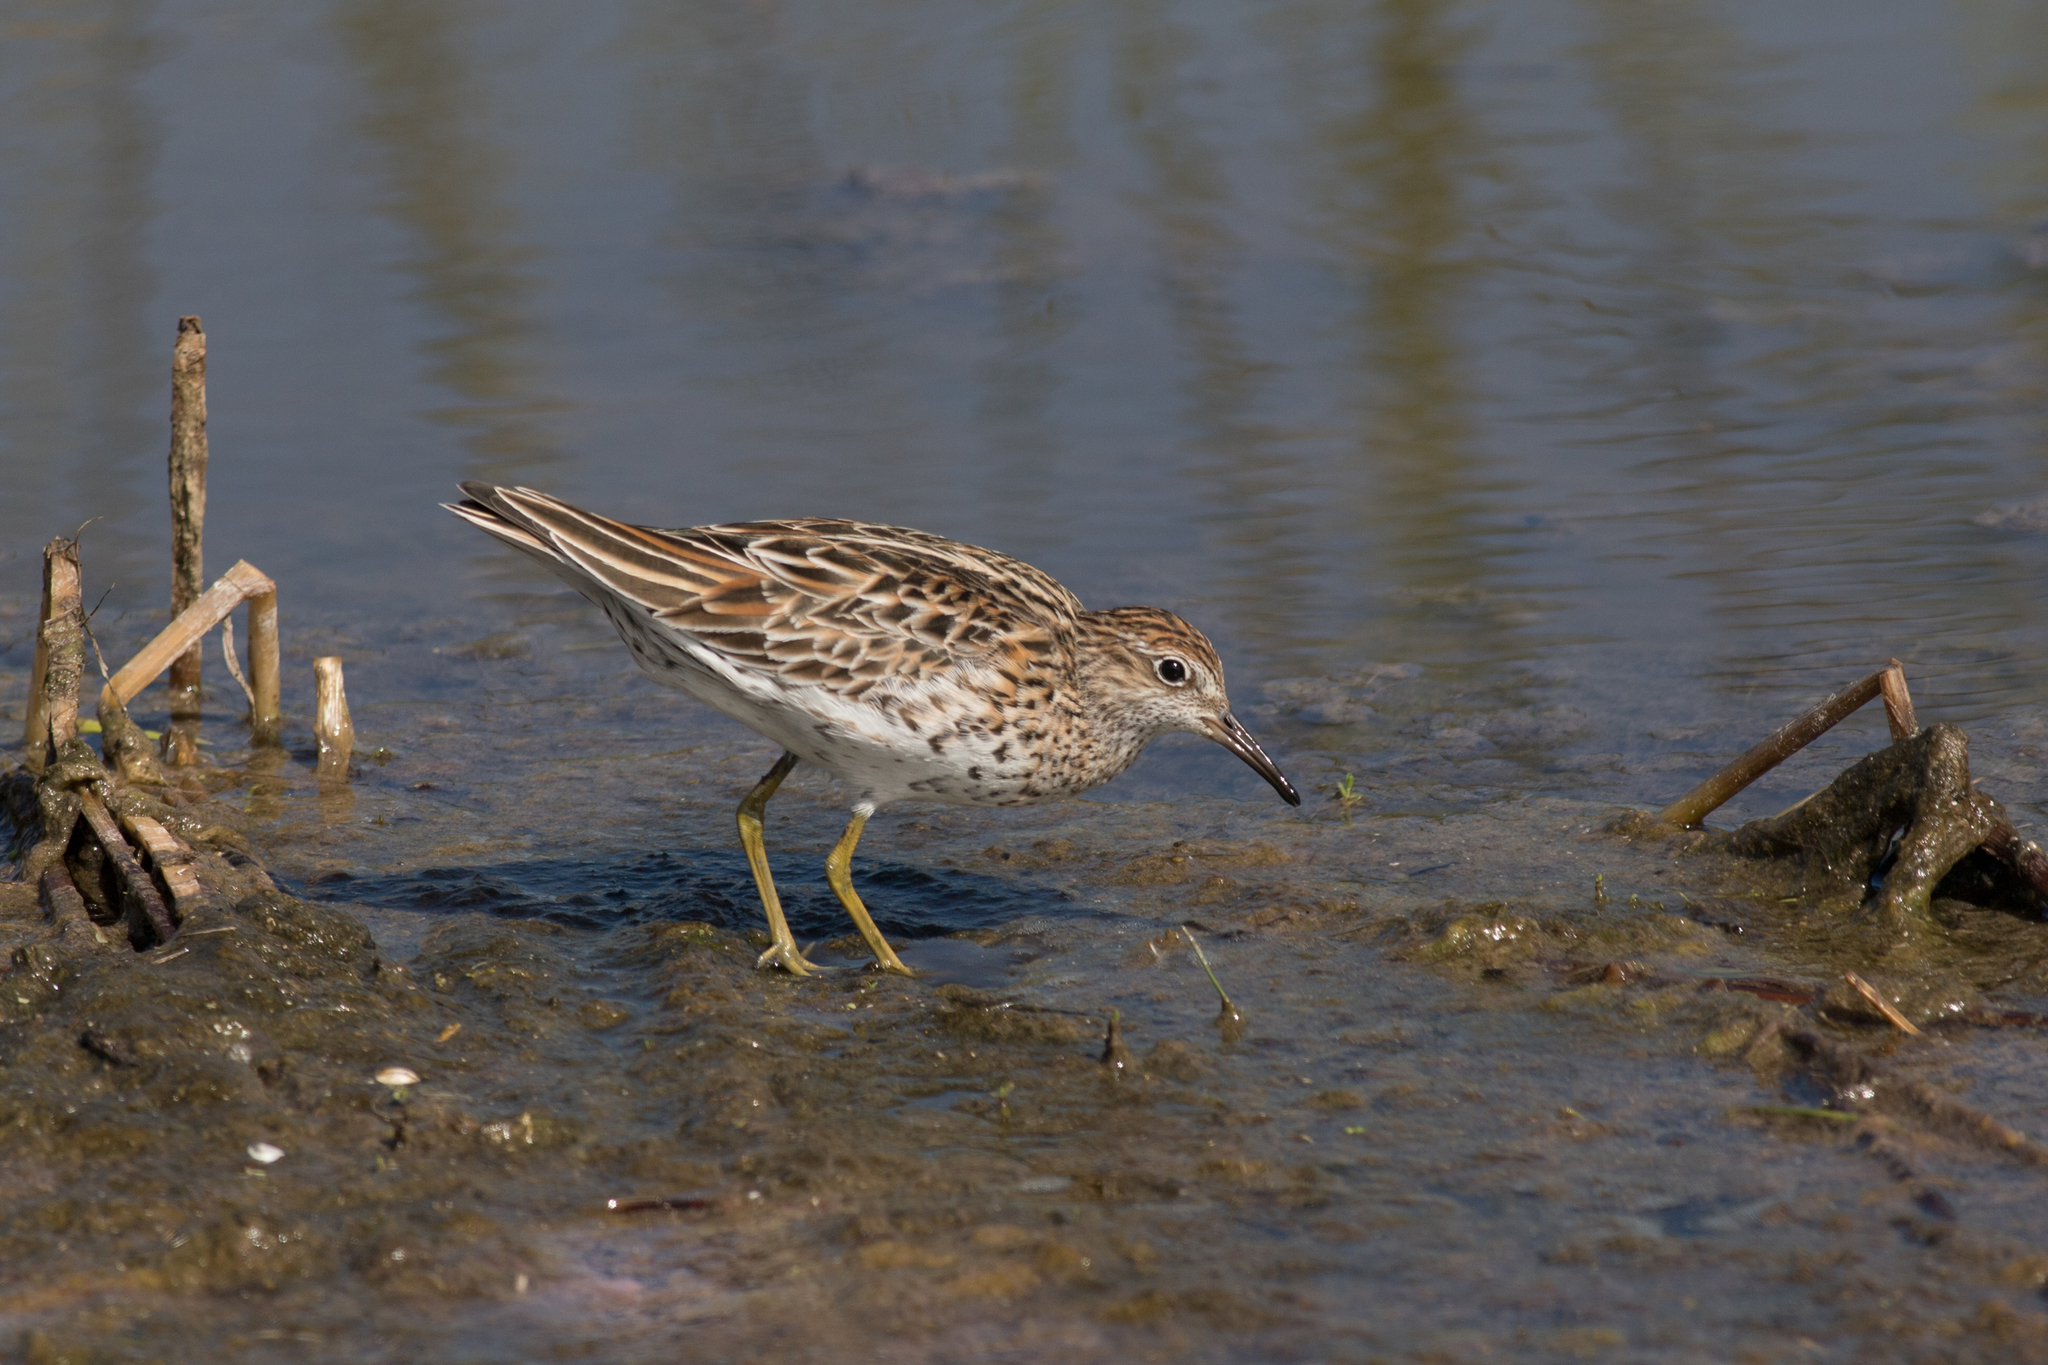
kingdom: Animalia
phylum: Chordata
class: Aves
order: Charadriiformes
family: Scolopacidae
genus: Calidris
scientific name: Calidris acuminata
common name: Sharp-tailed sandpiper
